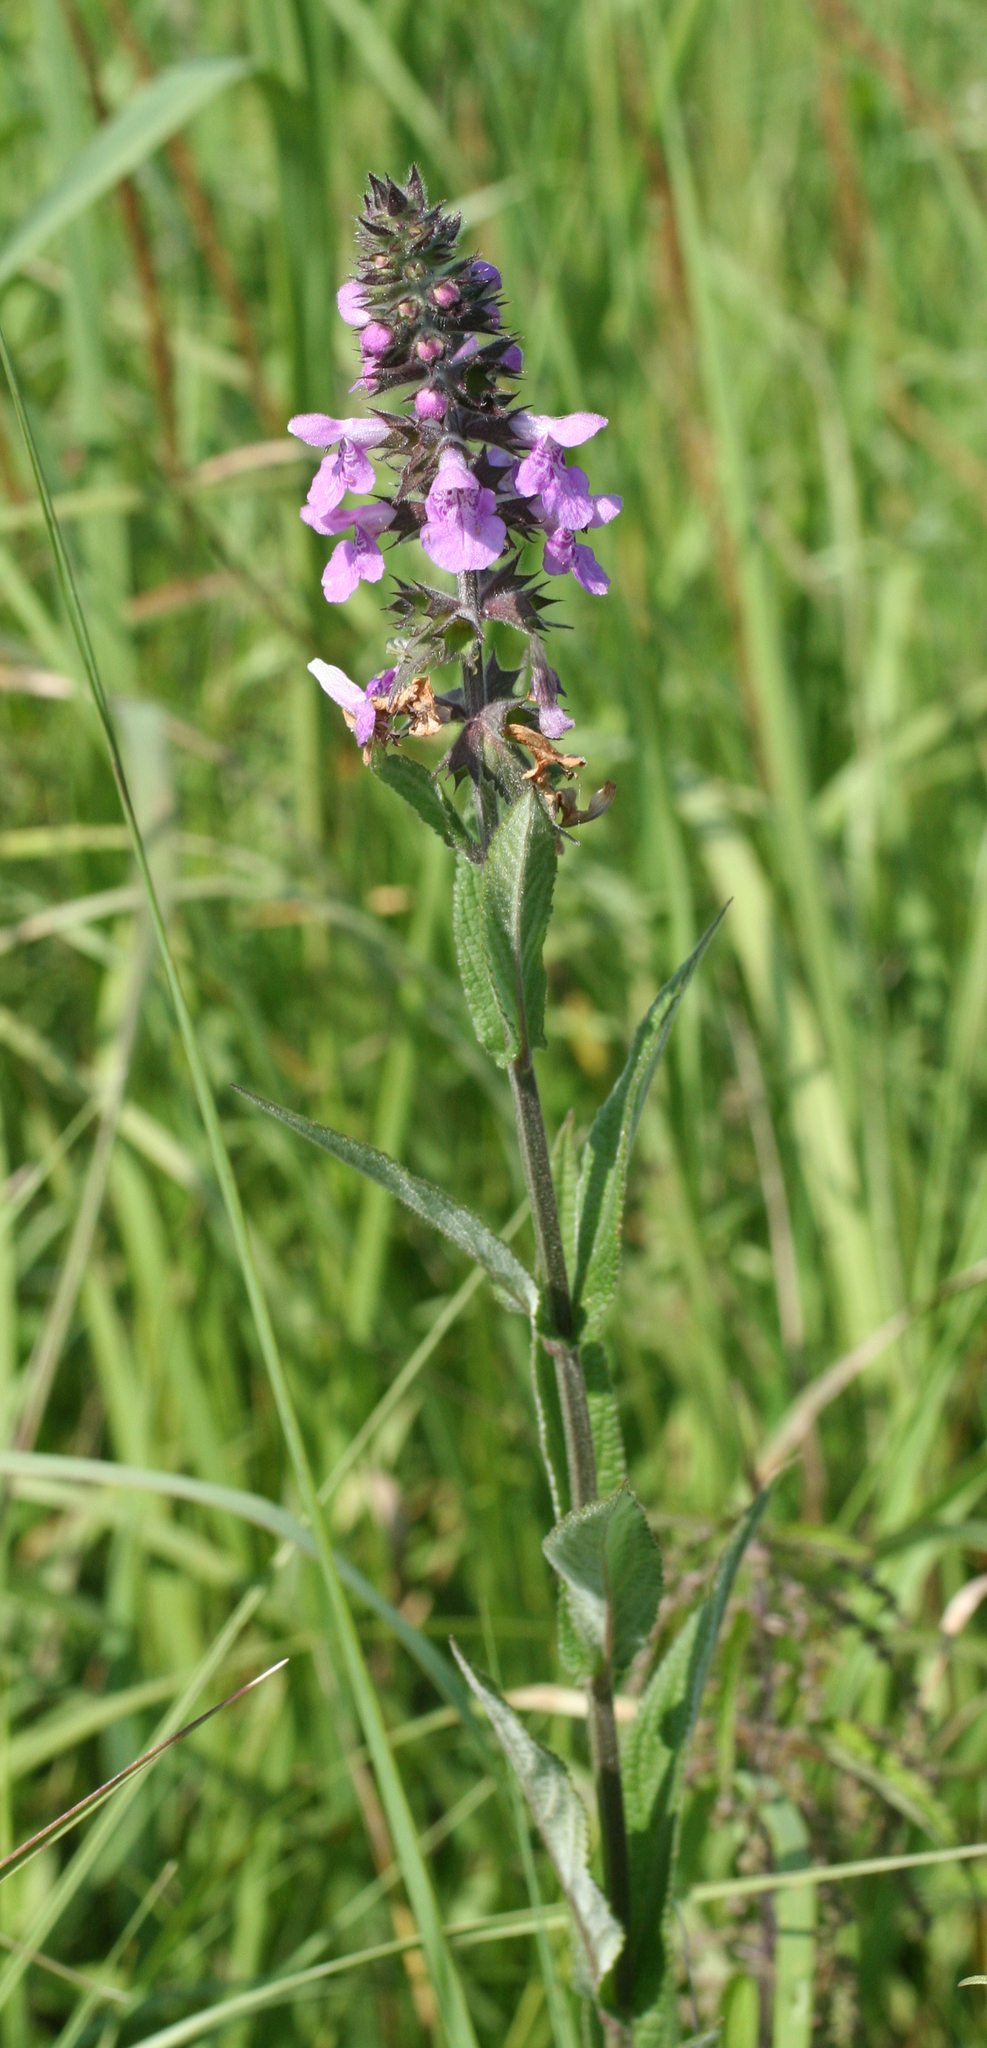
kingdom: Plantae
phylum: Tracheophyta
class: Magnoliopsida
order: Lamiales
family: Lamiaceae
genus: Stachys
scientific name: Stachys palustris
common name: Marsh woundwort
